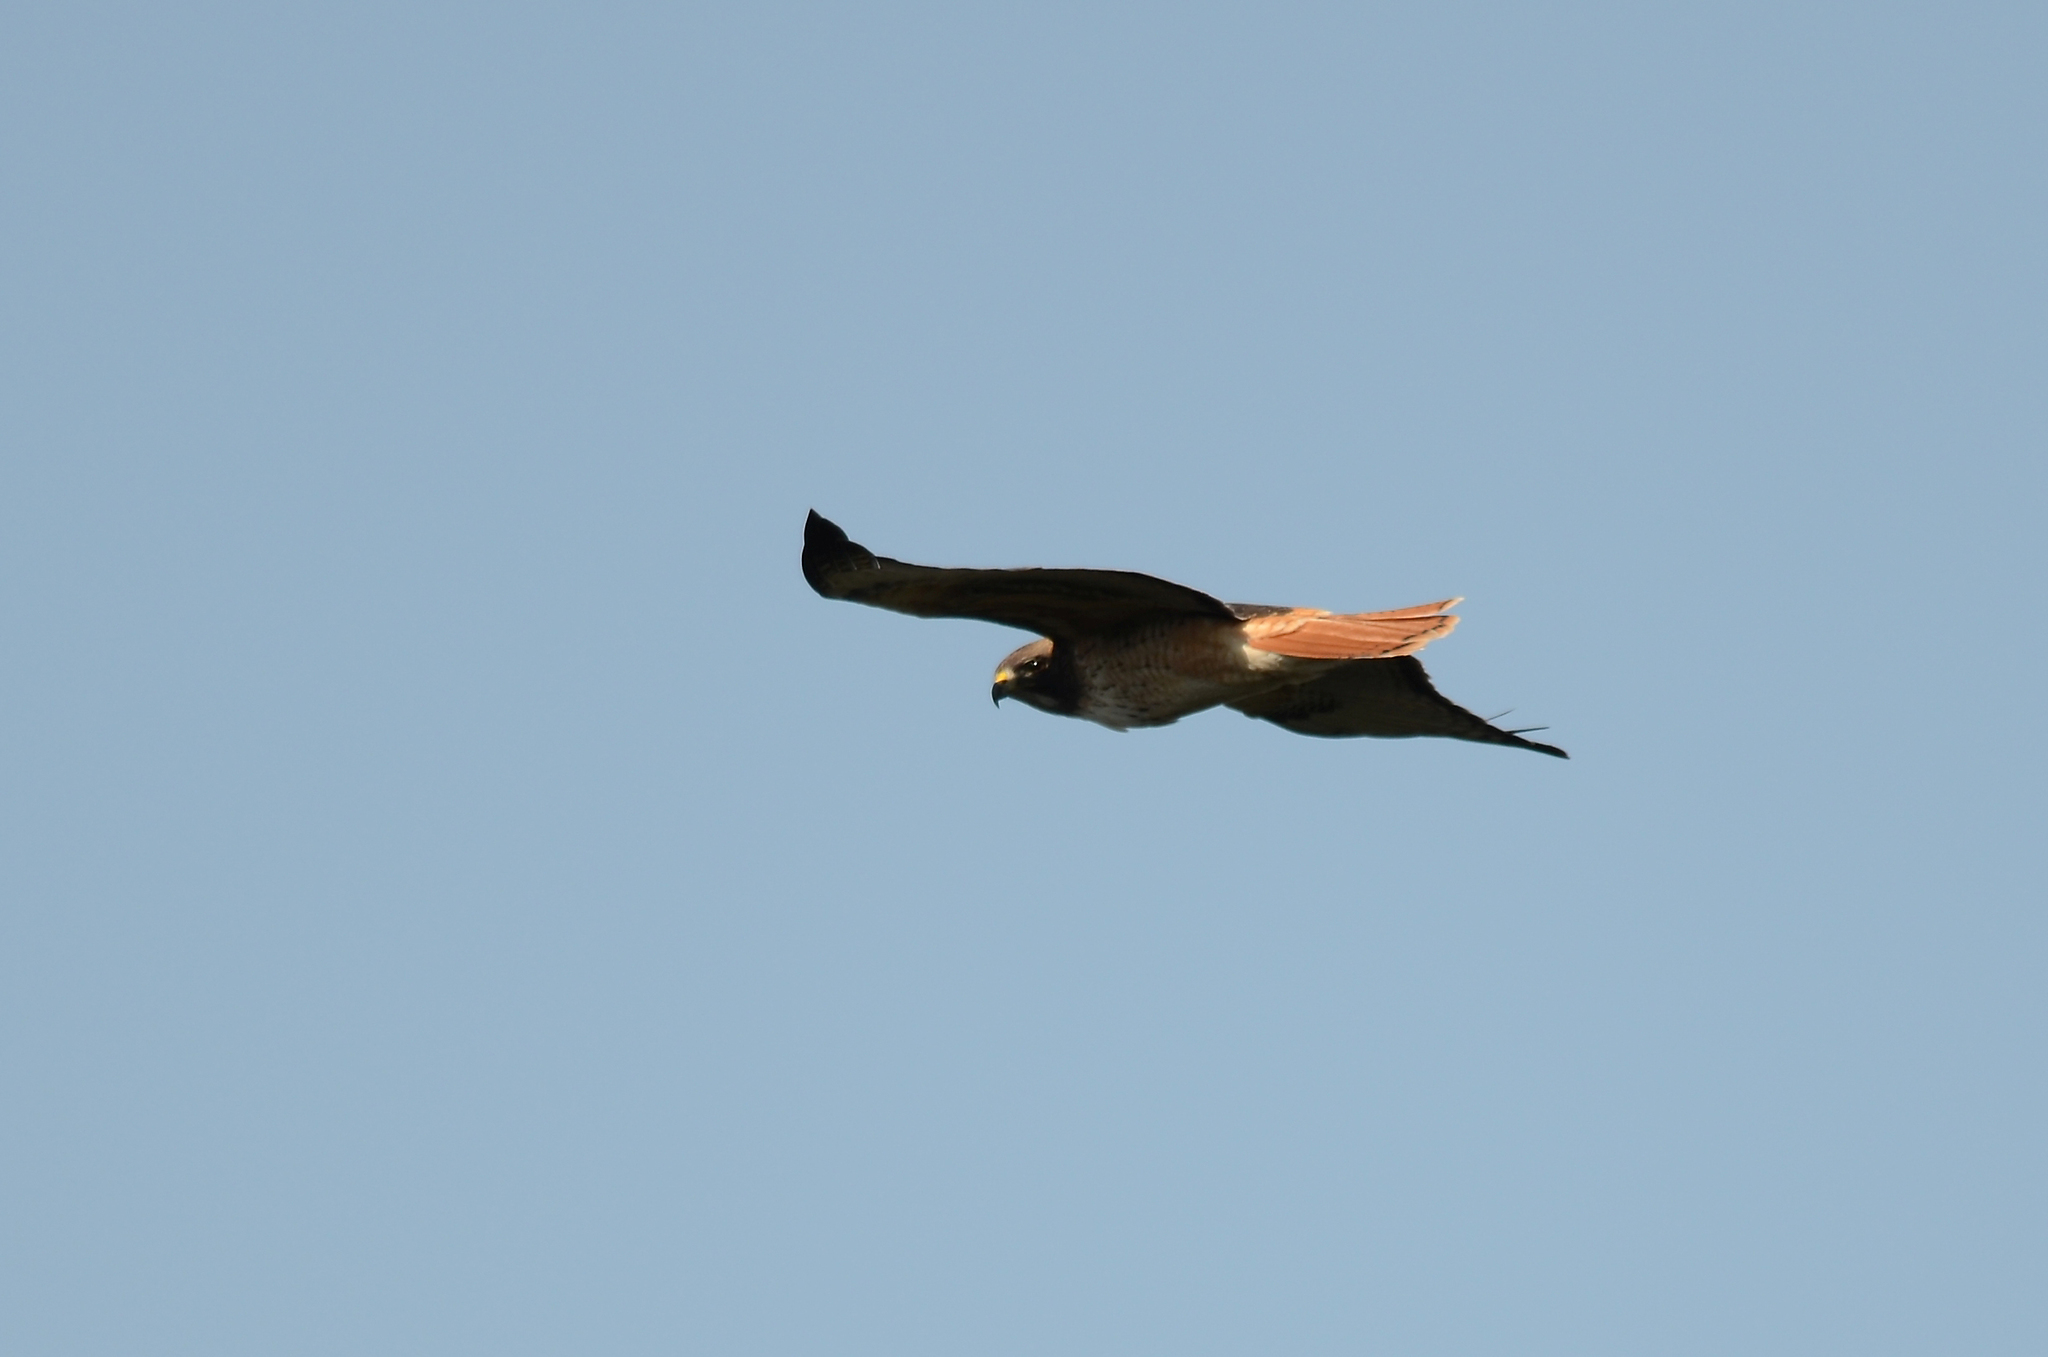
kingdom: Animalia
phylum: Chordata
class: Aves
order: Accipitriformes
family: Accipitridae
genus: Buteo
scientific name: Buteo jamaicensis
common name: Red-tailed hawk
